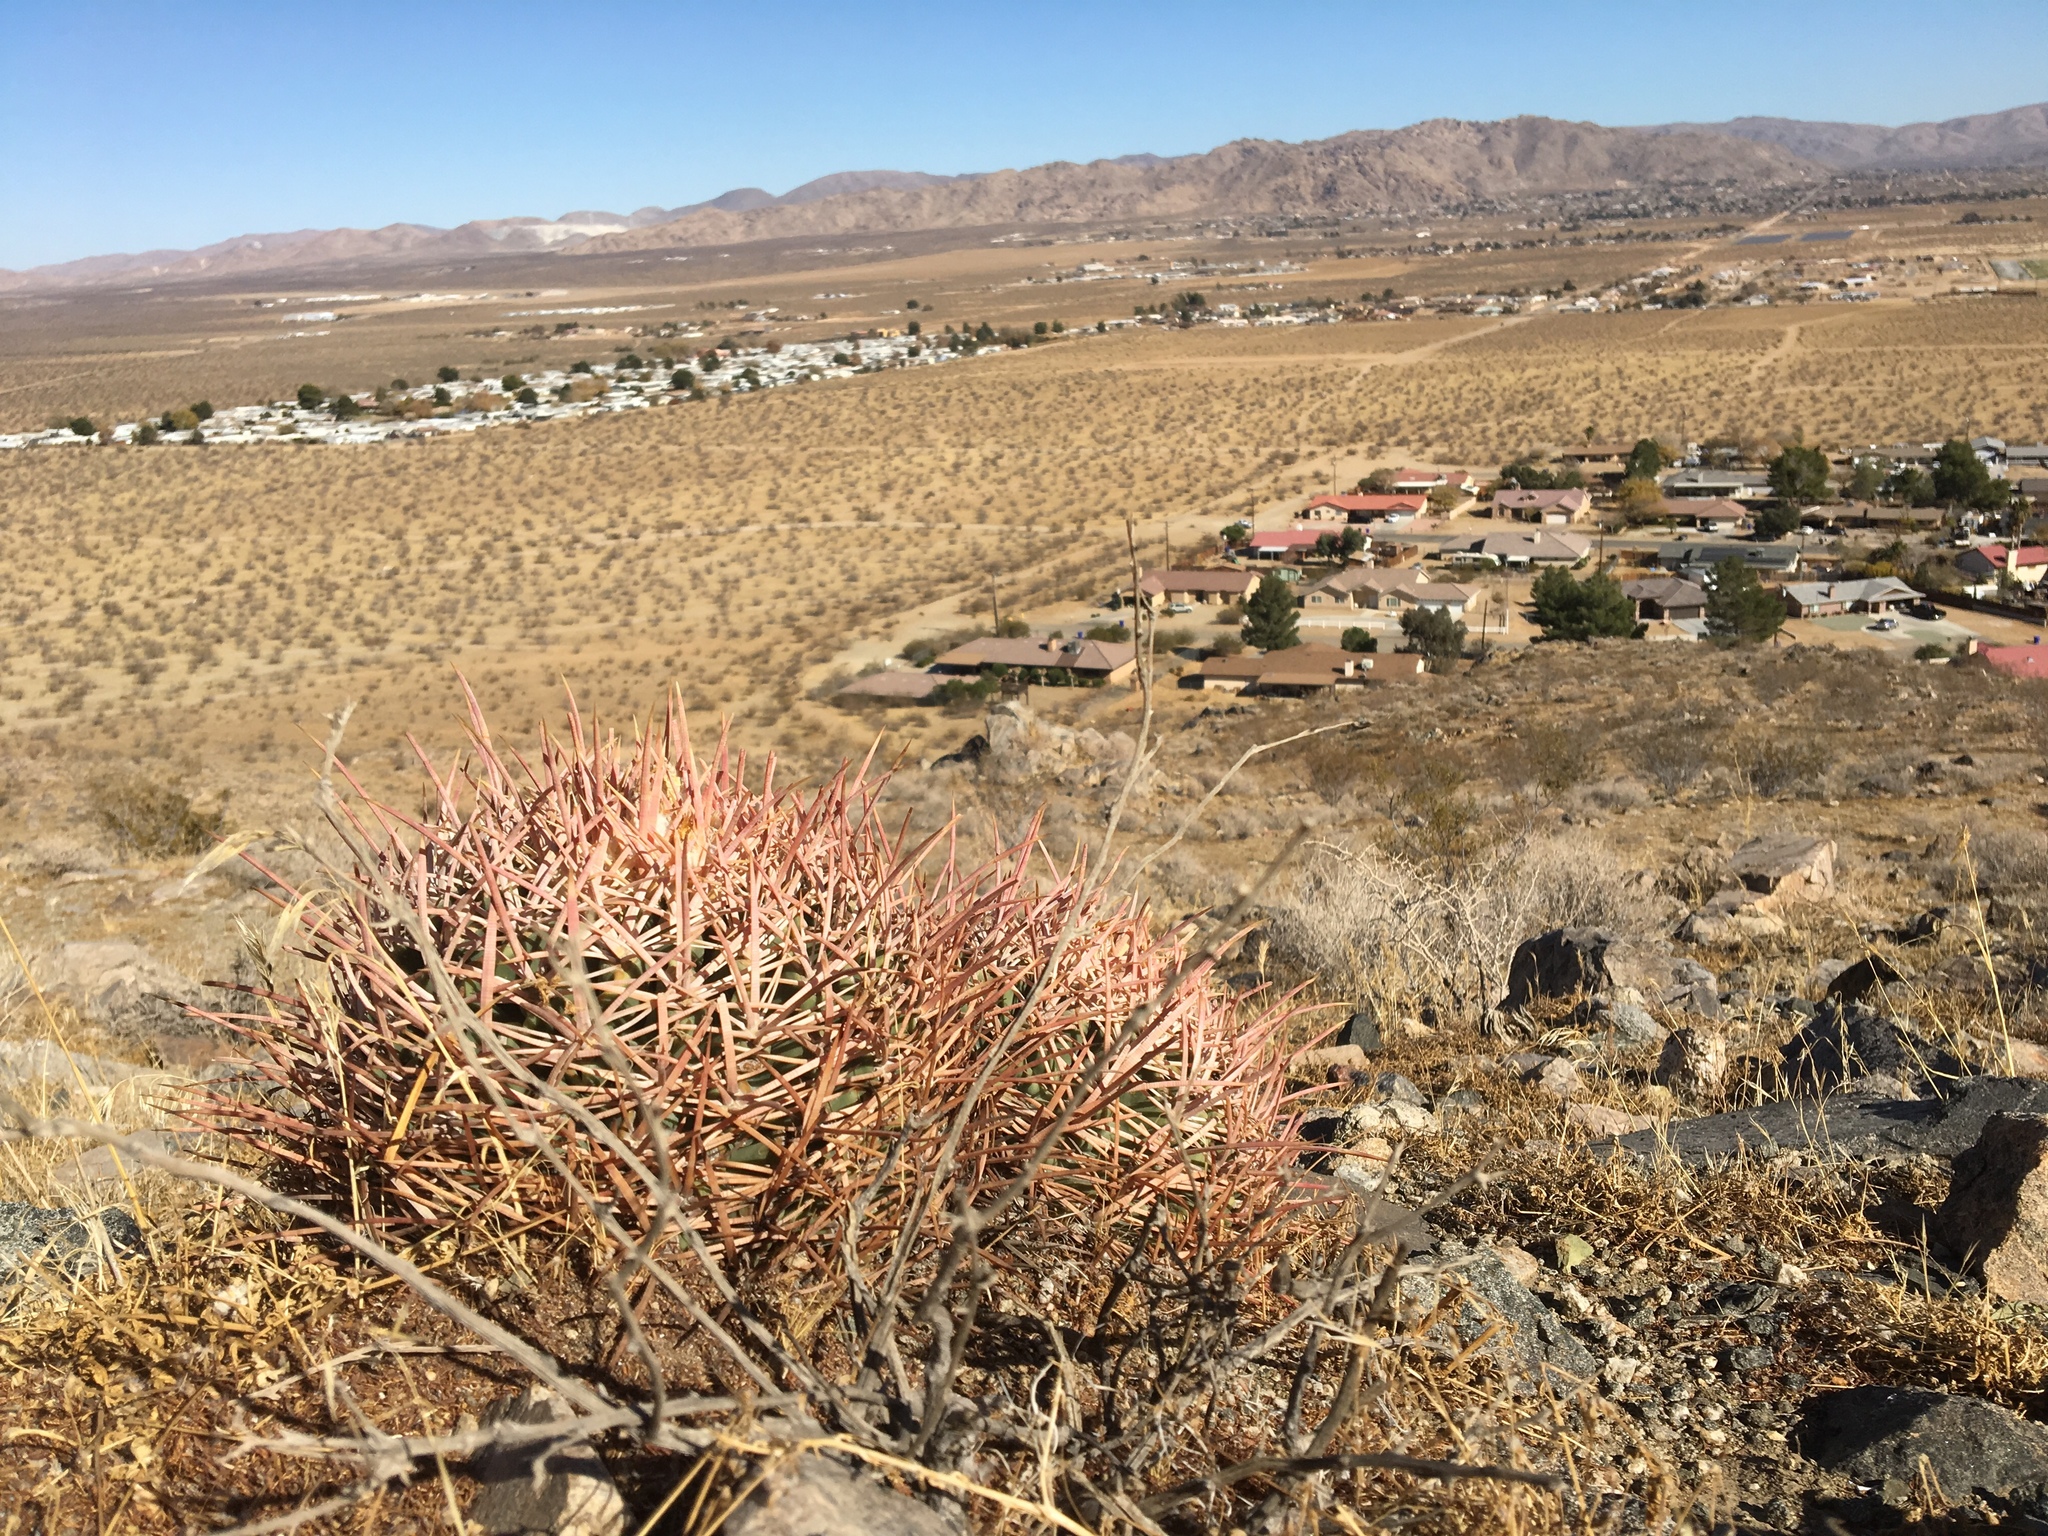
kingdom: Plantae
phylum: Tracheophyta
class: Magnoliopsida
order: Caryophyllales
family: Cactaceae
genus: Echinocactus
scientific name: Echinocactus polycephalus
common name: Cottontop cactus
